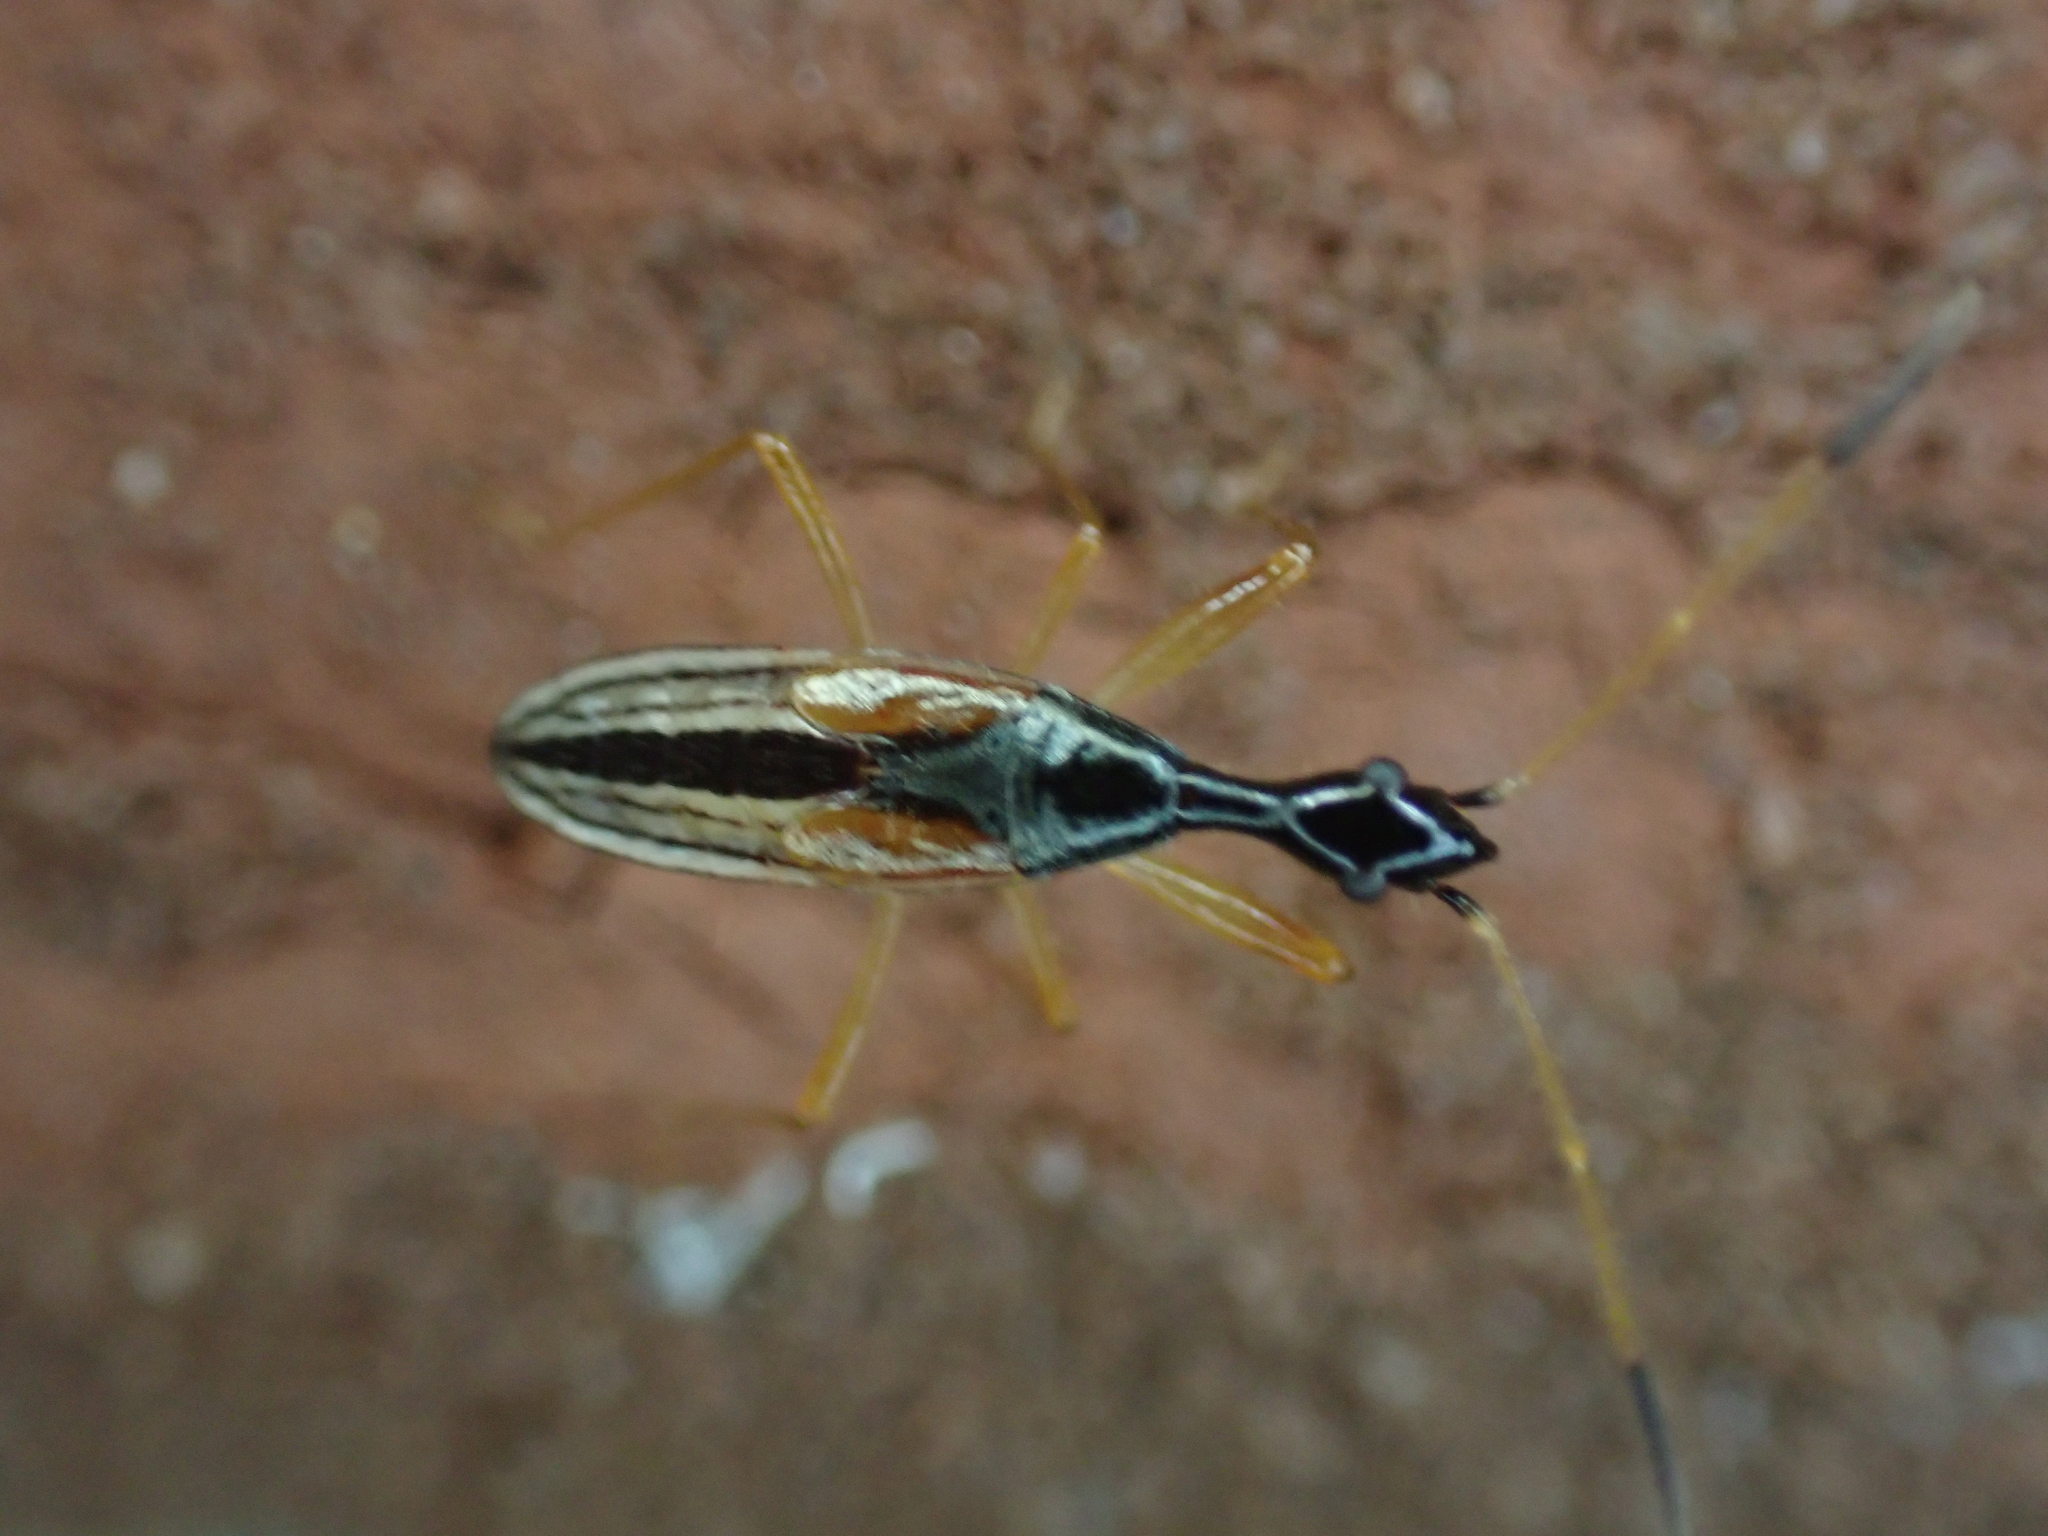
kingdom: Animalia
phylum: Arthropoda
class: Insecta
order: Hemiptera
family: Rhyparochromidae
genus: Myodocha
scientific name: Myodocha serripes
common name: Long-necked seed bug
